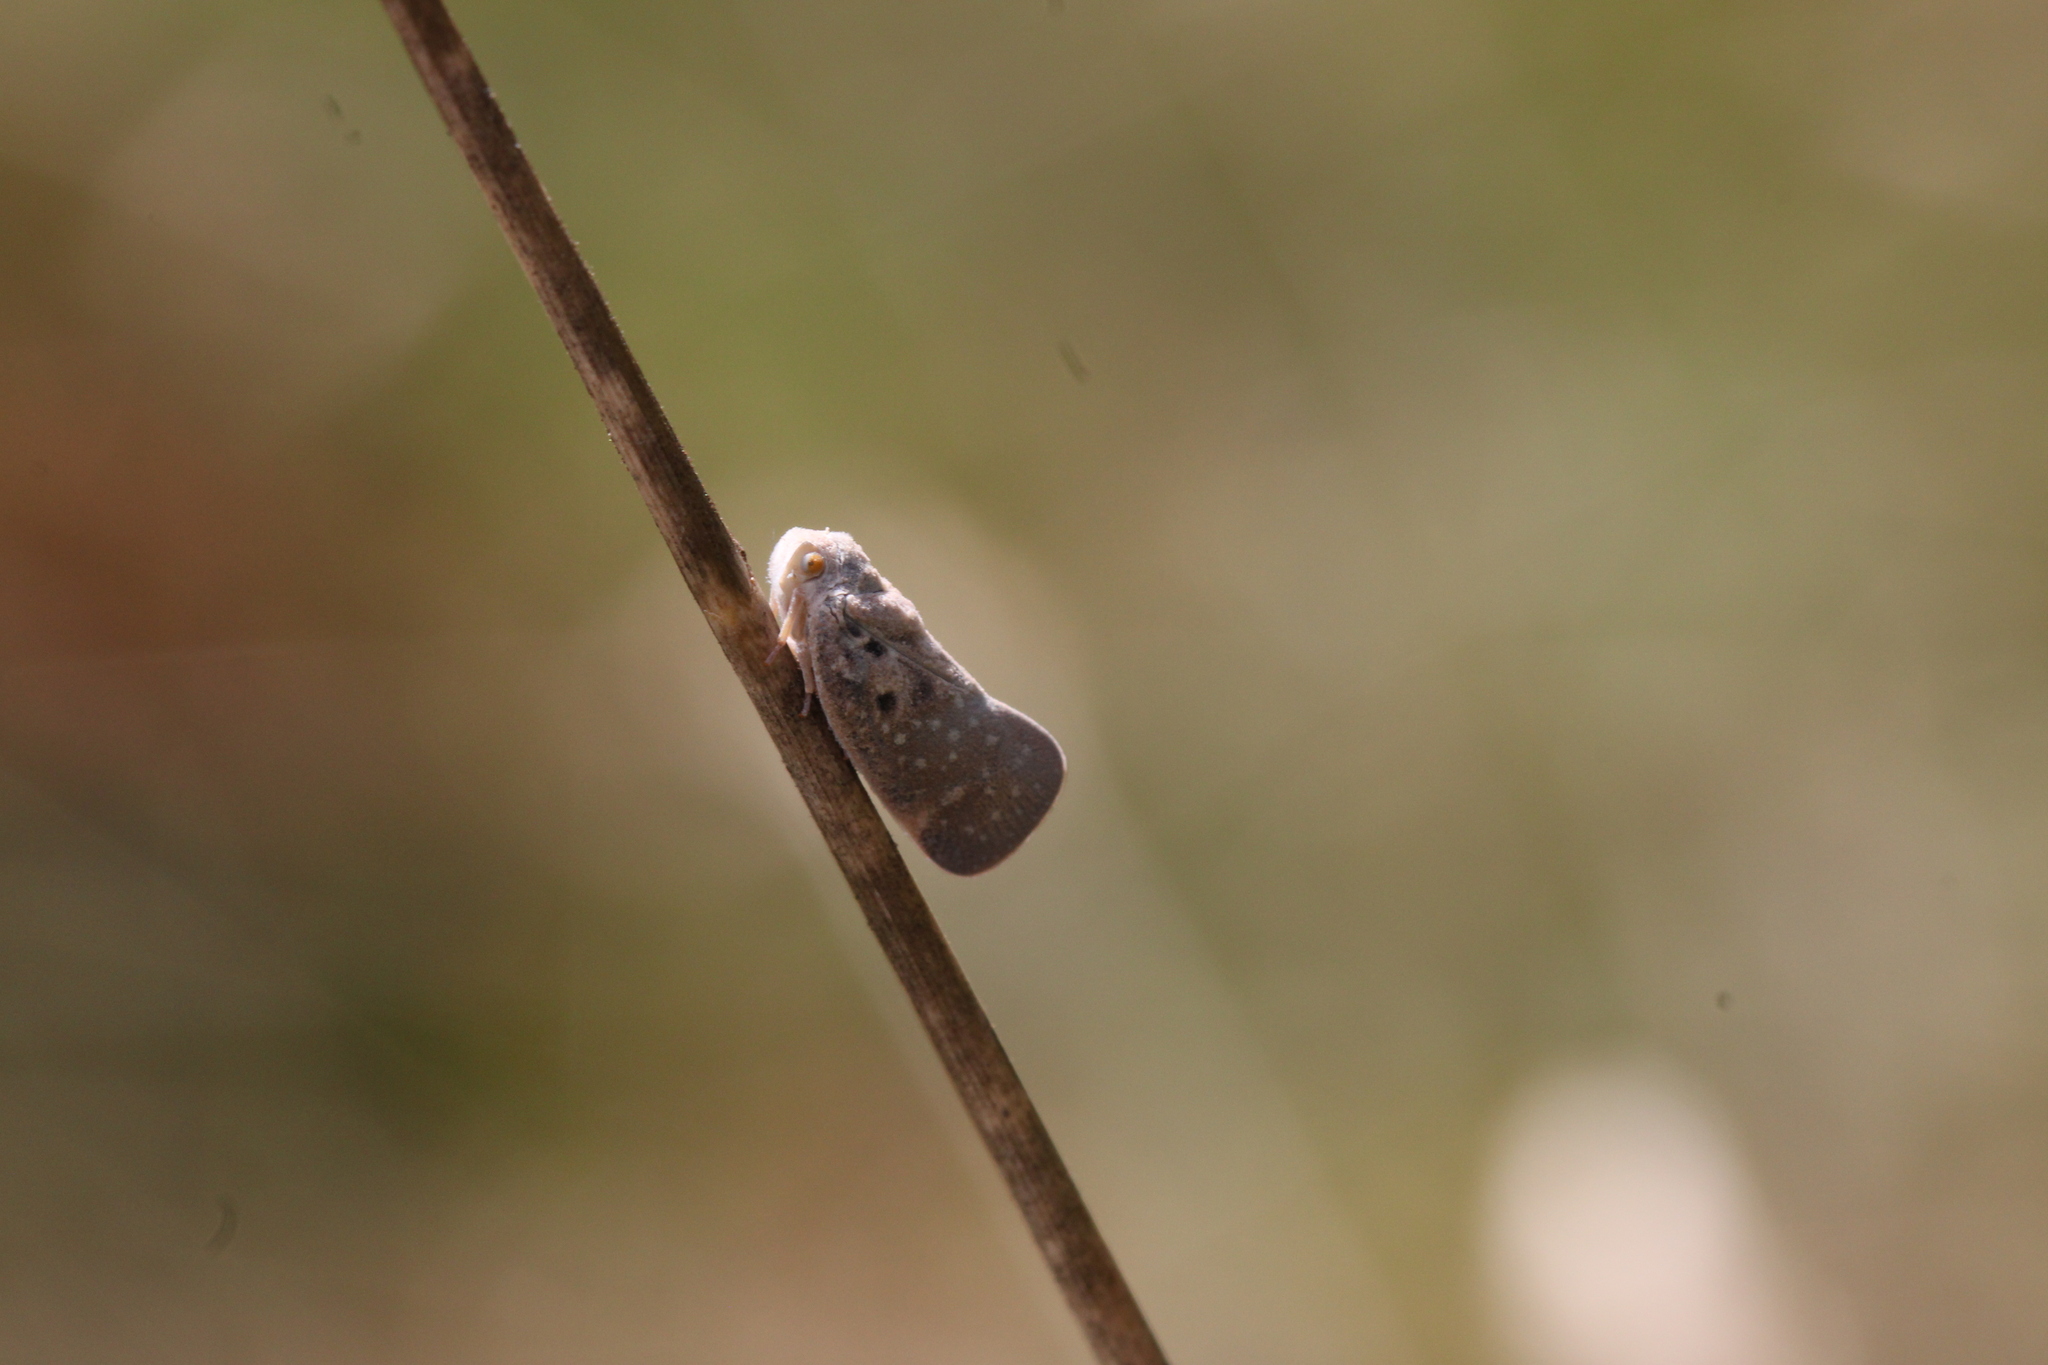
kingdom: Animalia
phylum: Arthropoda
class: Insecta
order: Hemiptera
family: Flatidae
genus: Metcalfa
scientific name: Metcalfa pruinosa
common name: Citrus flatid planthopper
